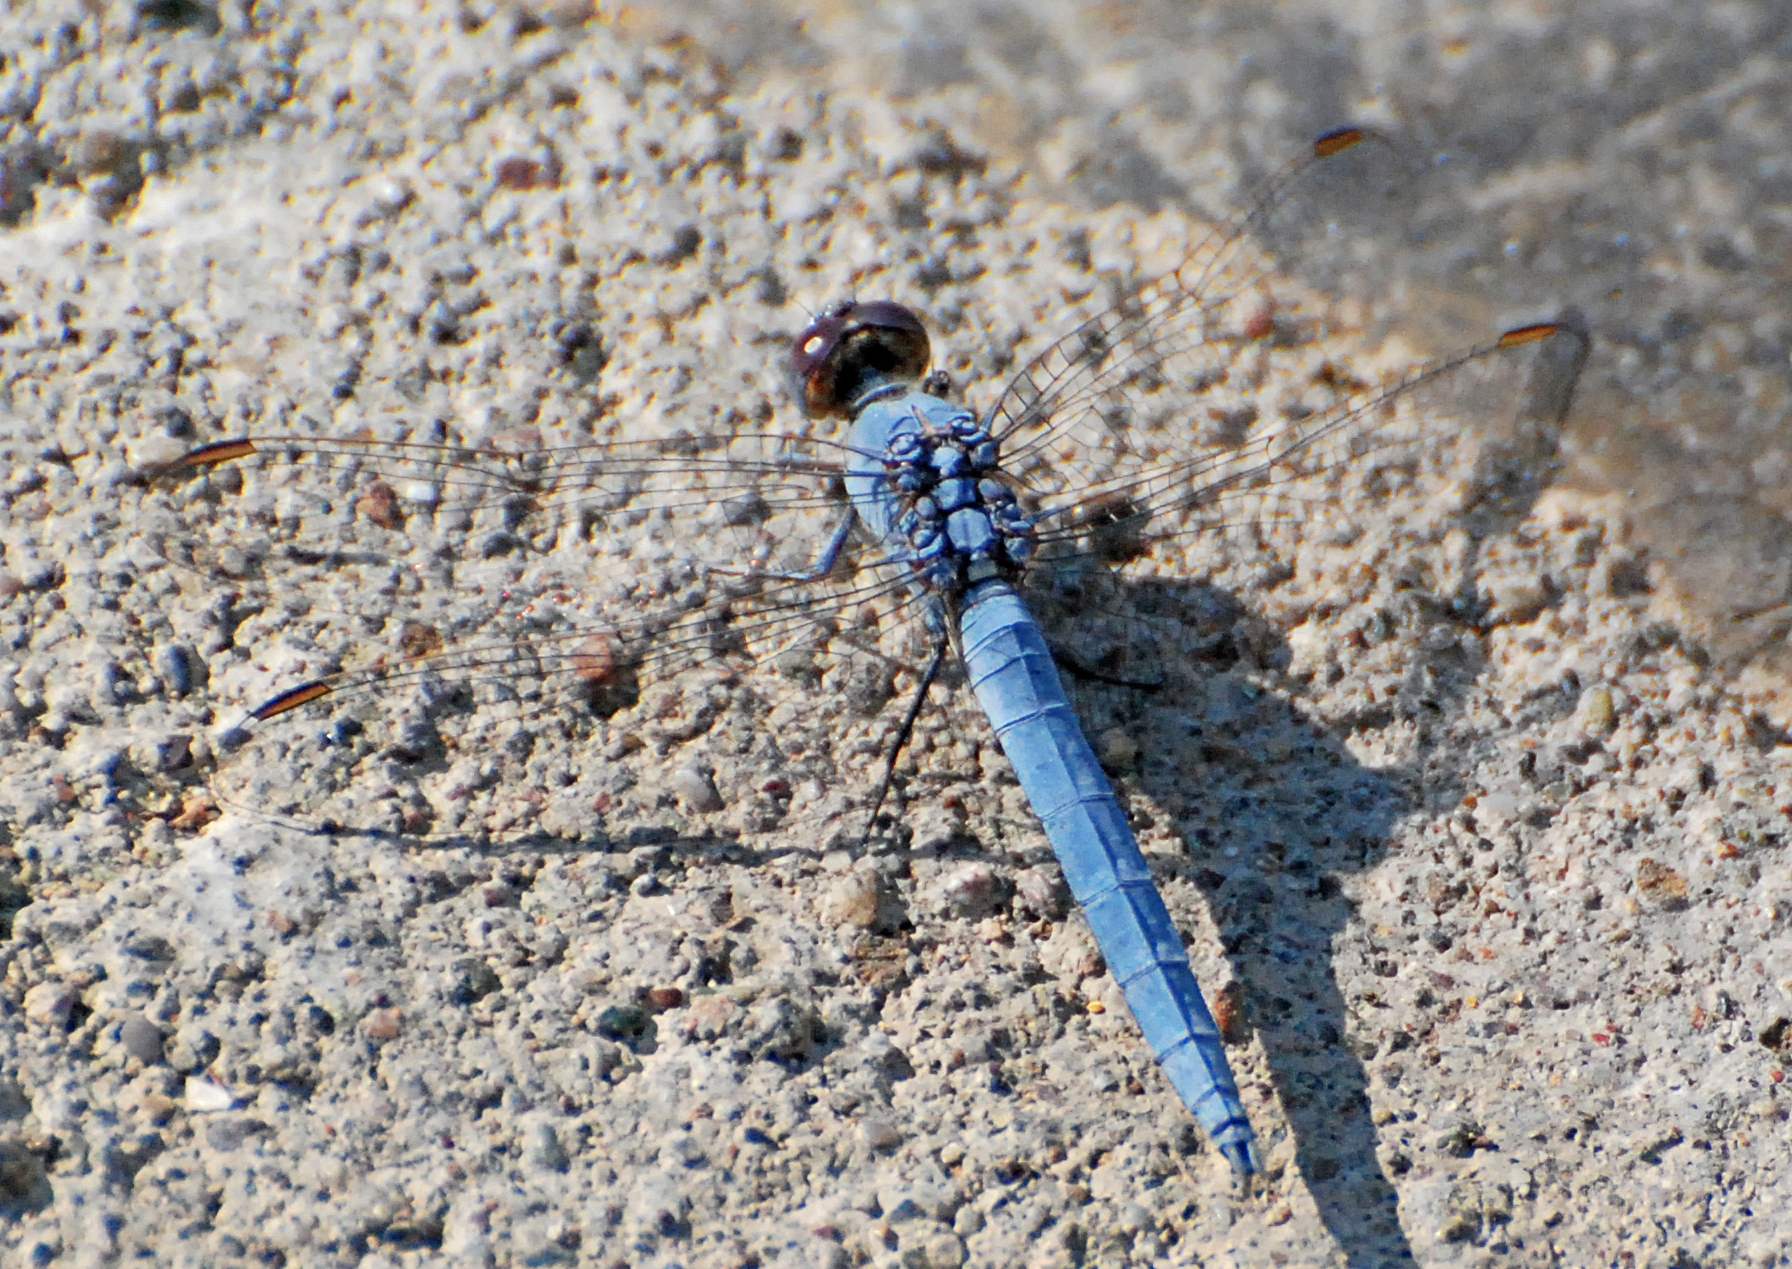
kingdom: Animalia
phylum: Arthropoda
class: Insecta
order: Odonata
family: Libellulidae
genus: Orthetrum
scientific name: Orthetrum taeniolatum
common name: Small skimmer
